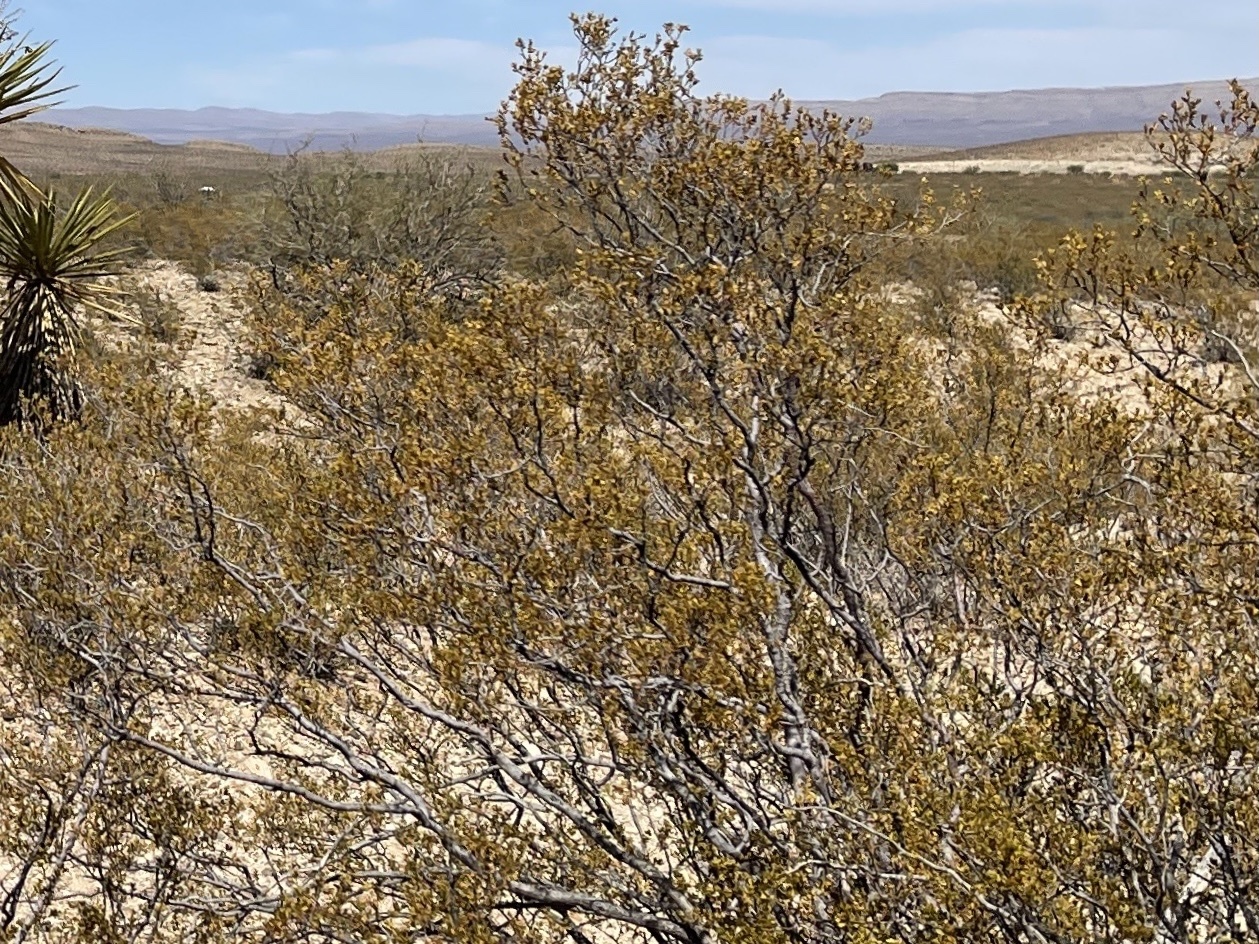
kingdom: Plantae
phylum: Tracheophyta
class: Magnoliopsida
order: Zygophyllales
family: Zygophyllaceae
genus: Larrea
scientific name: Larrea tridentata
